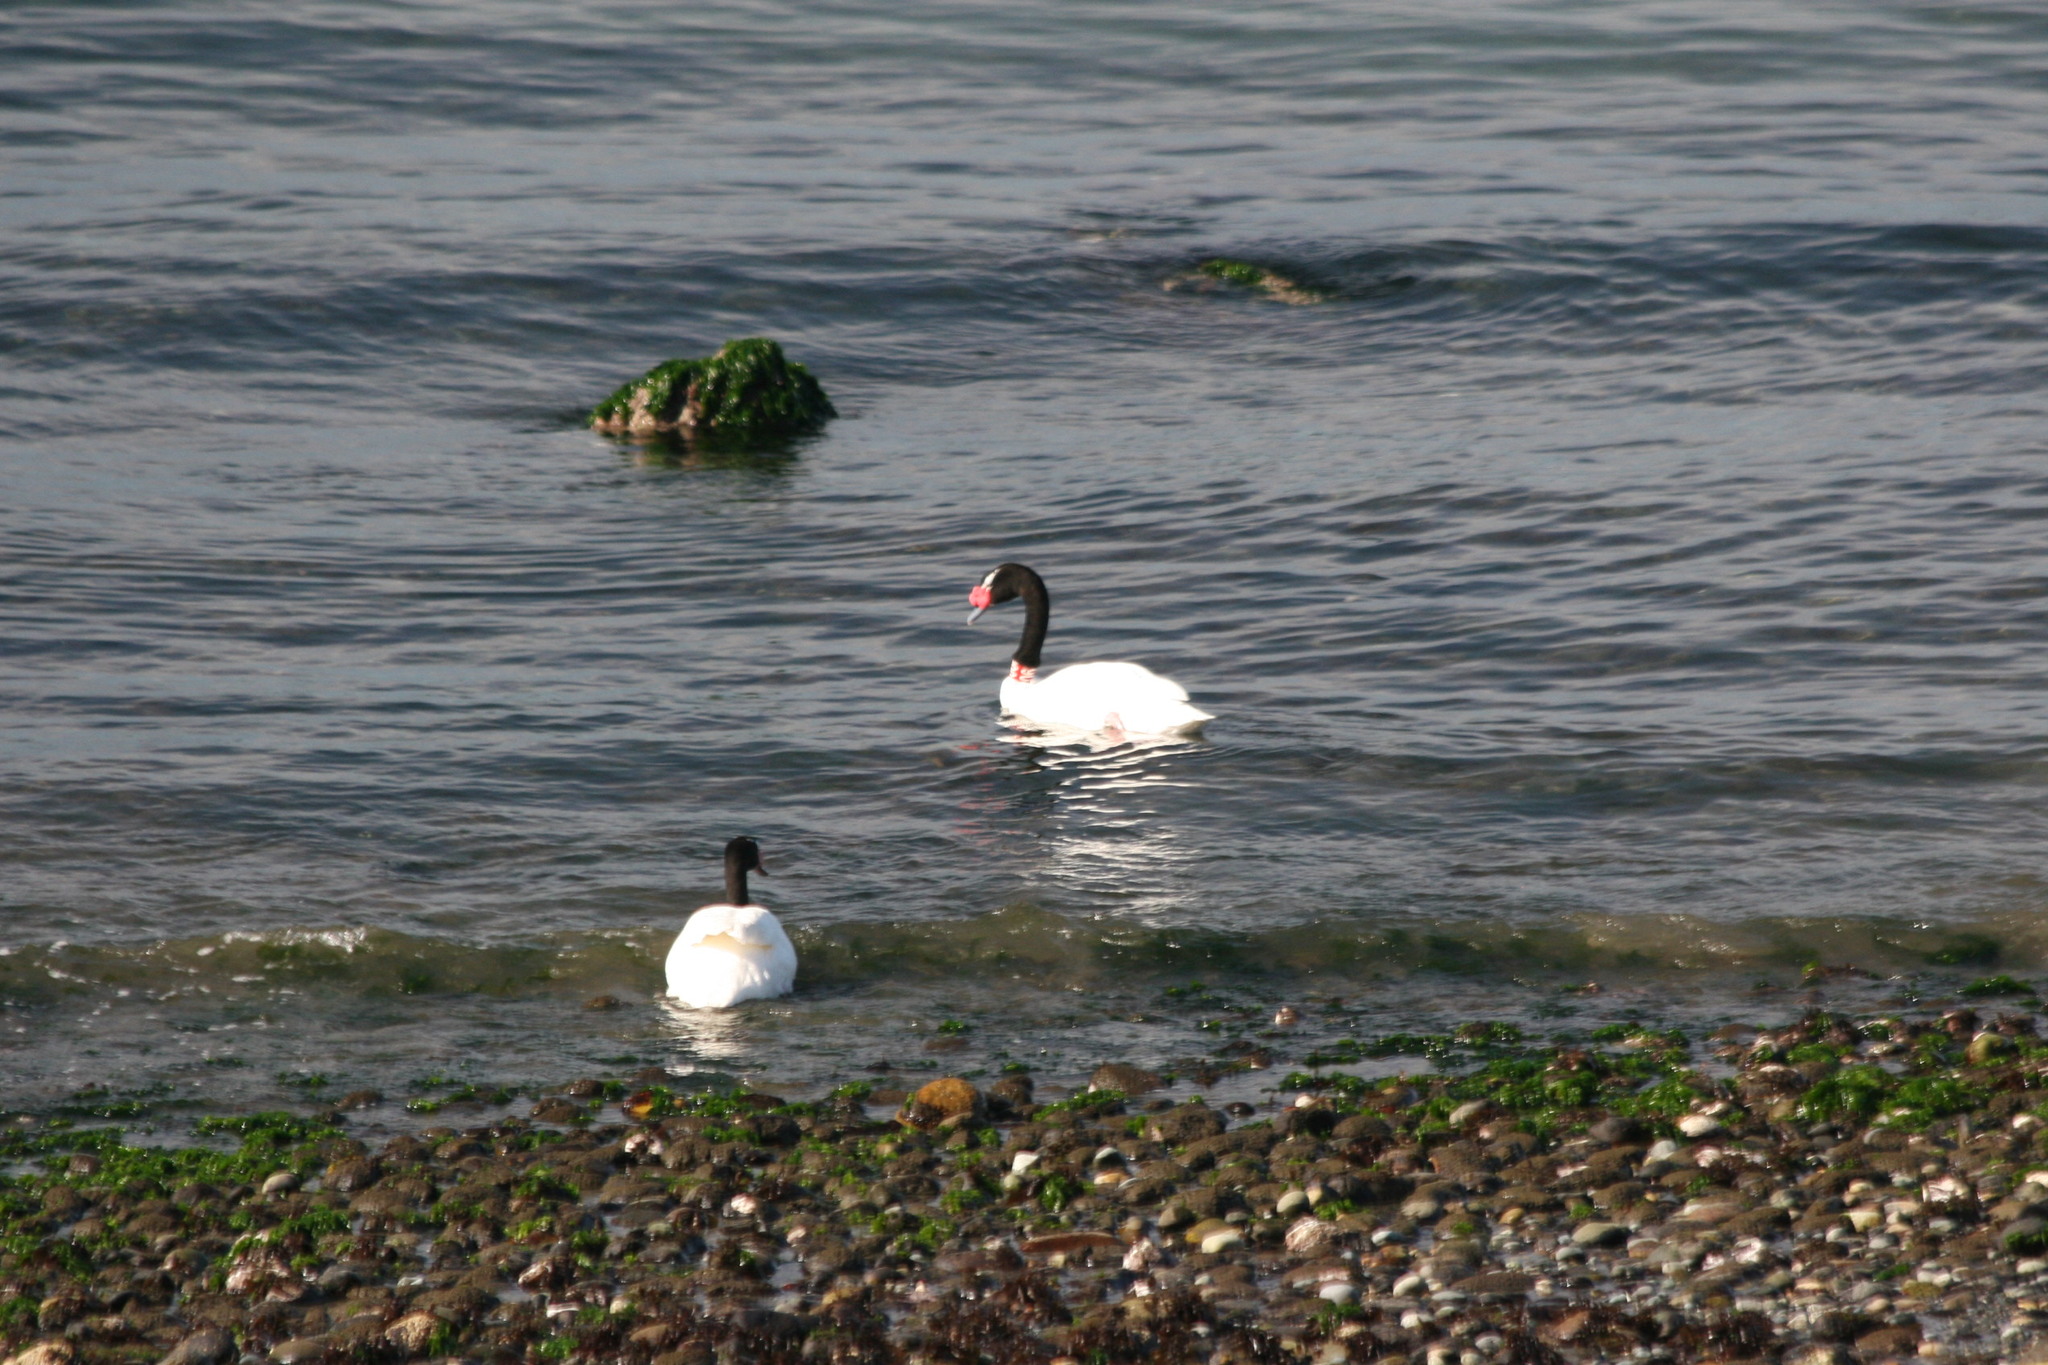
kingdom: Animalia
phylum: Chordata
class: Aves
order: Anseriformes
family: Anatidae
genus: Cygnus
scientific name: Cygnus melancoryphus
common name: Black-necked swan
